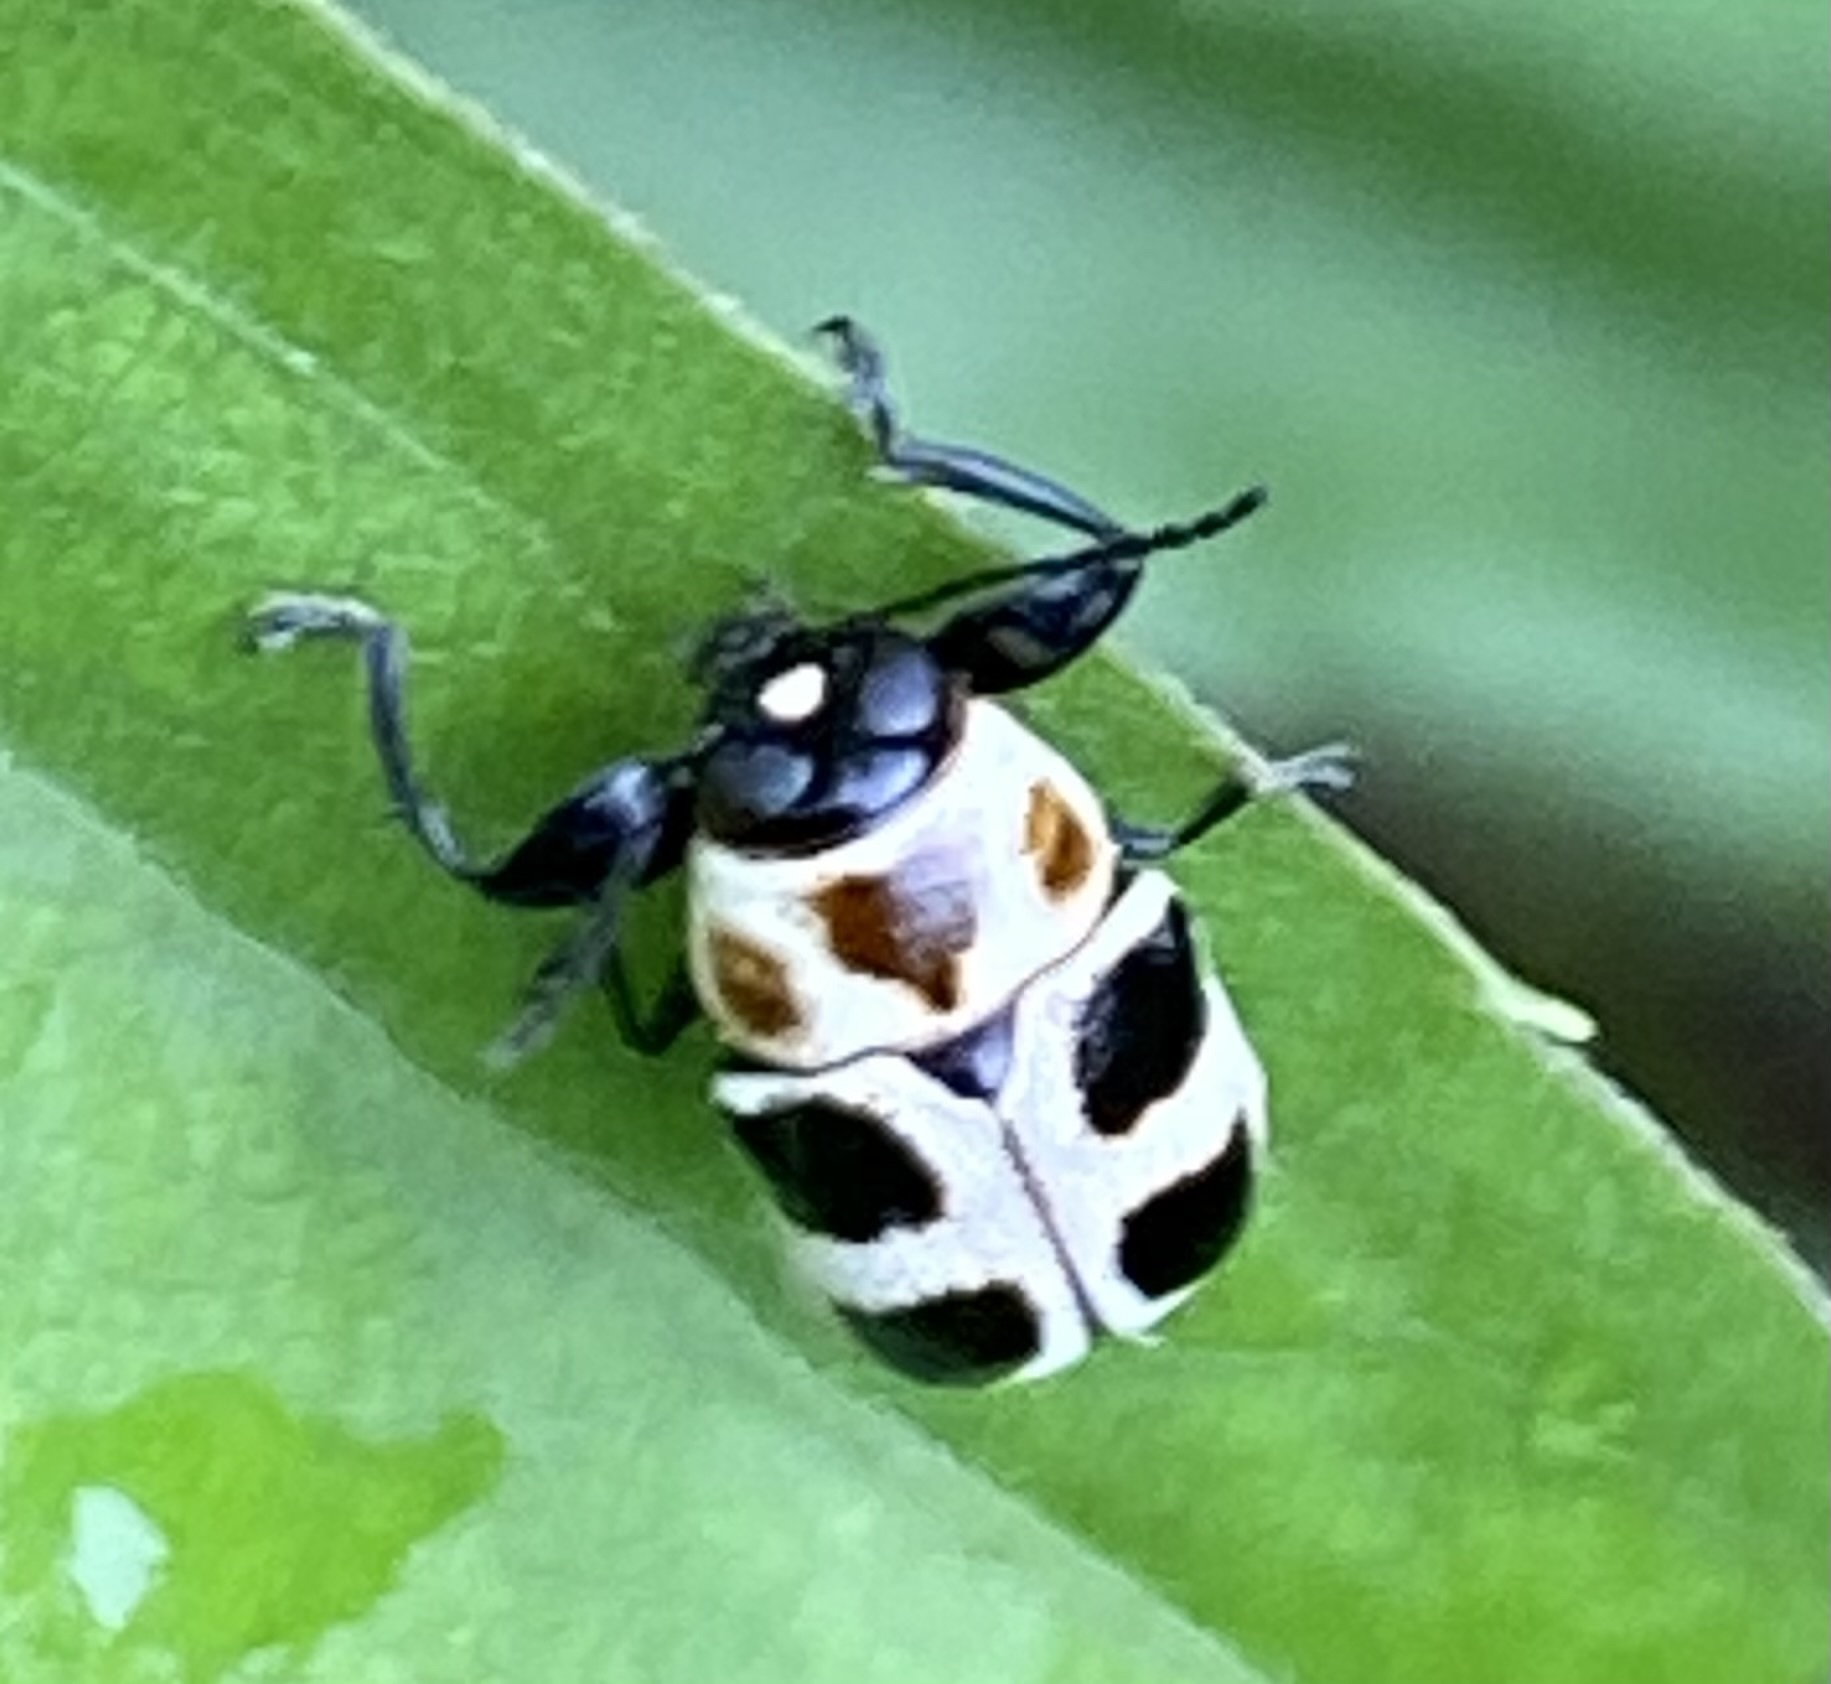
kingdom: Animalia
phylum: Arthropoda
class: Insecta
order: Coleoptera
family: Chrysomelidae
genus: Metallactus
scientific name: Metallactus
